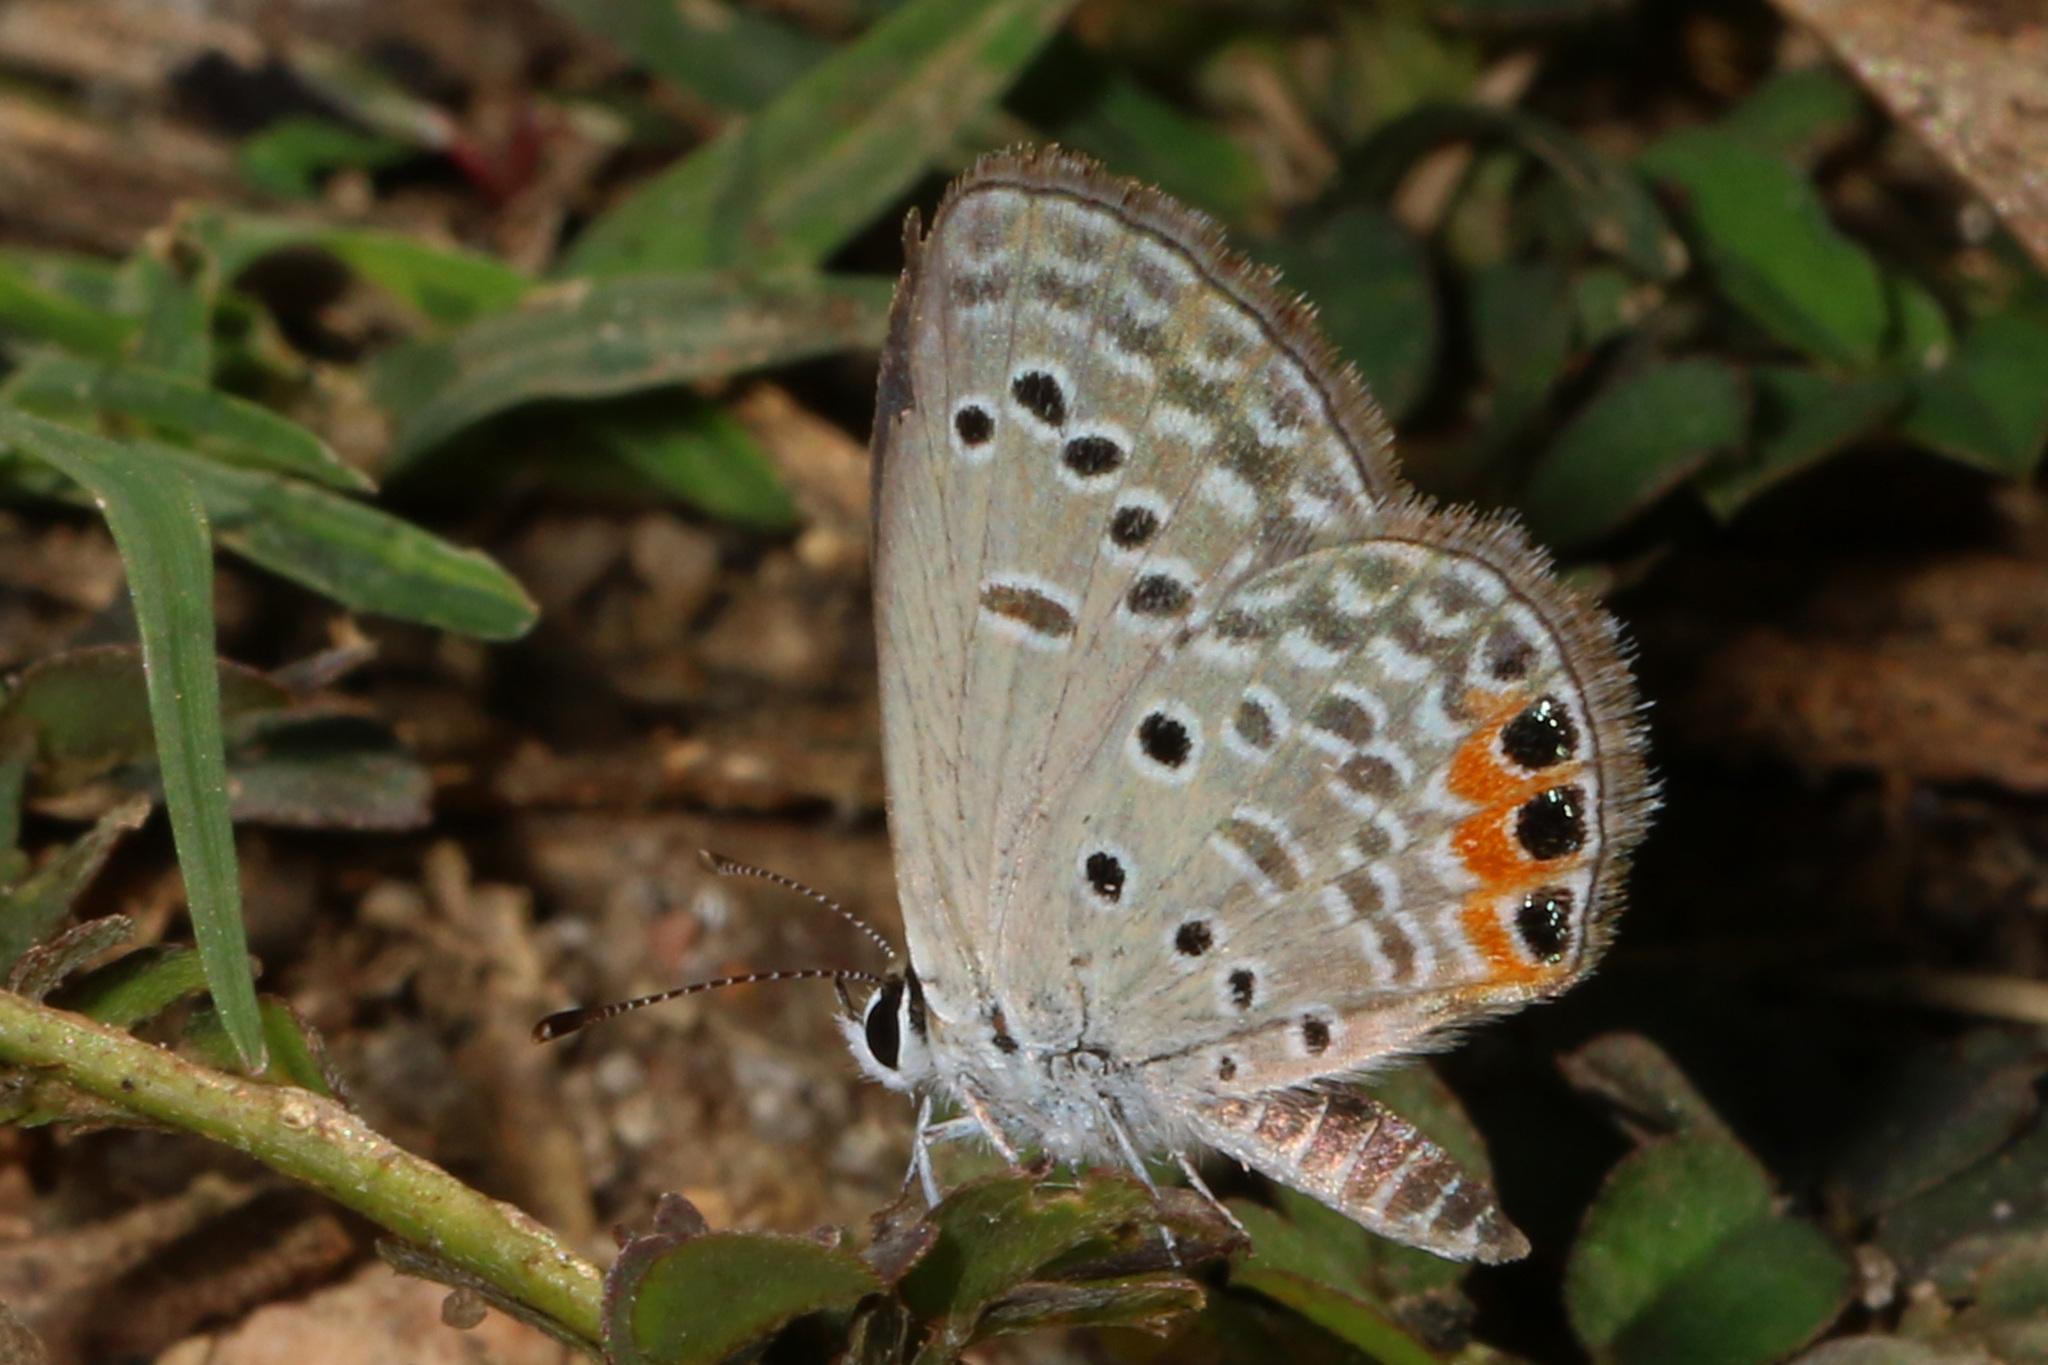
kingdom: Animalia
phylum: Arthropoda
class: Insecta
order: Lepidoptera
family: Lycaenidae
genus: Freyeria
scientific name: Freyeria trochylus
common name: Grass jewel
